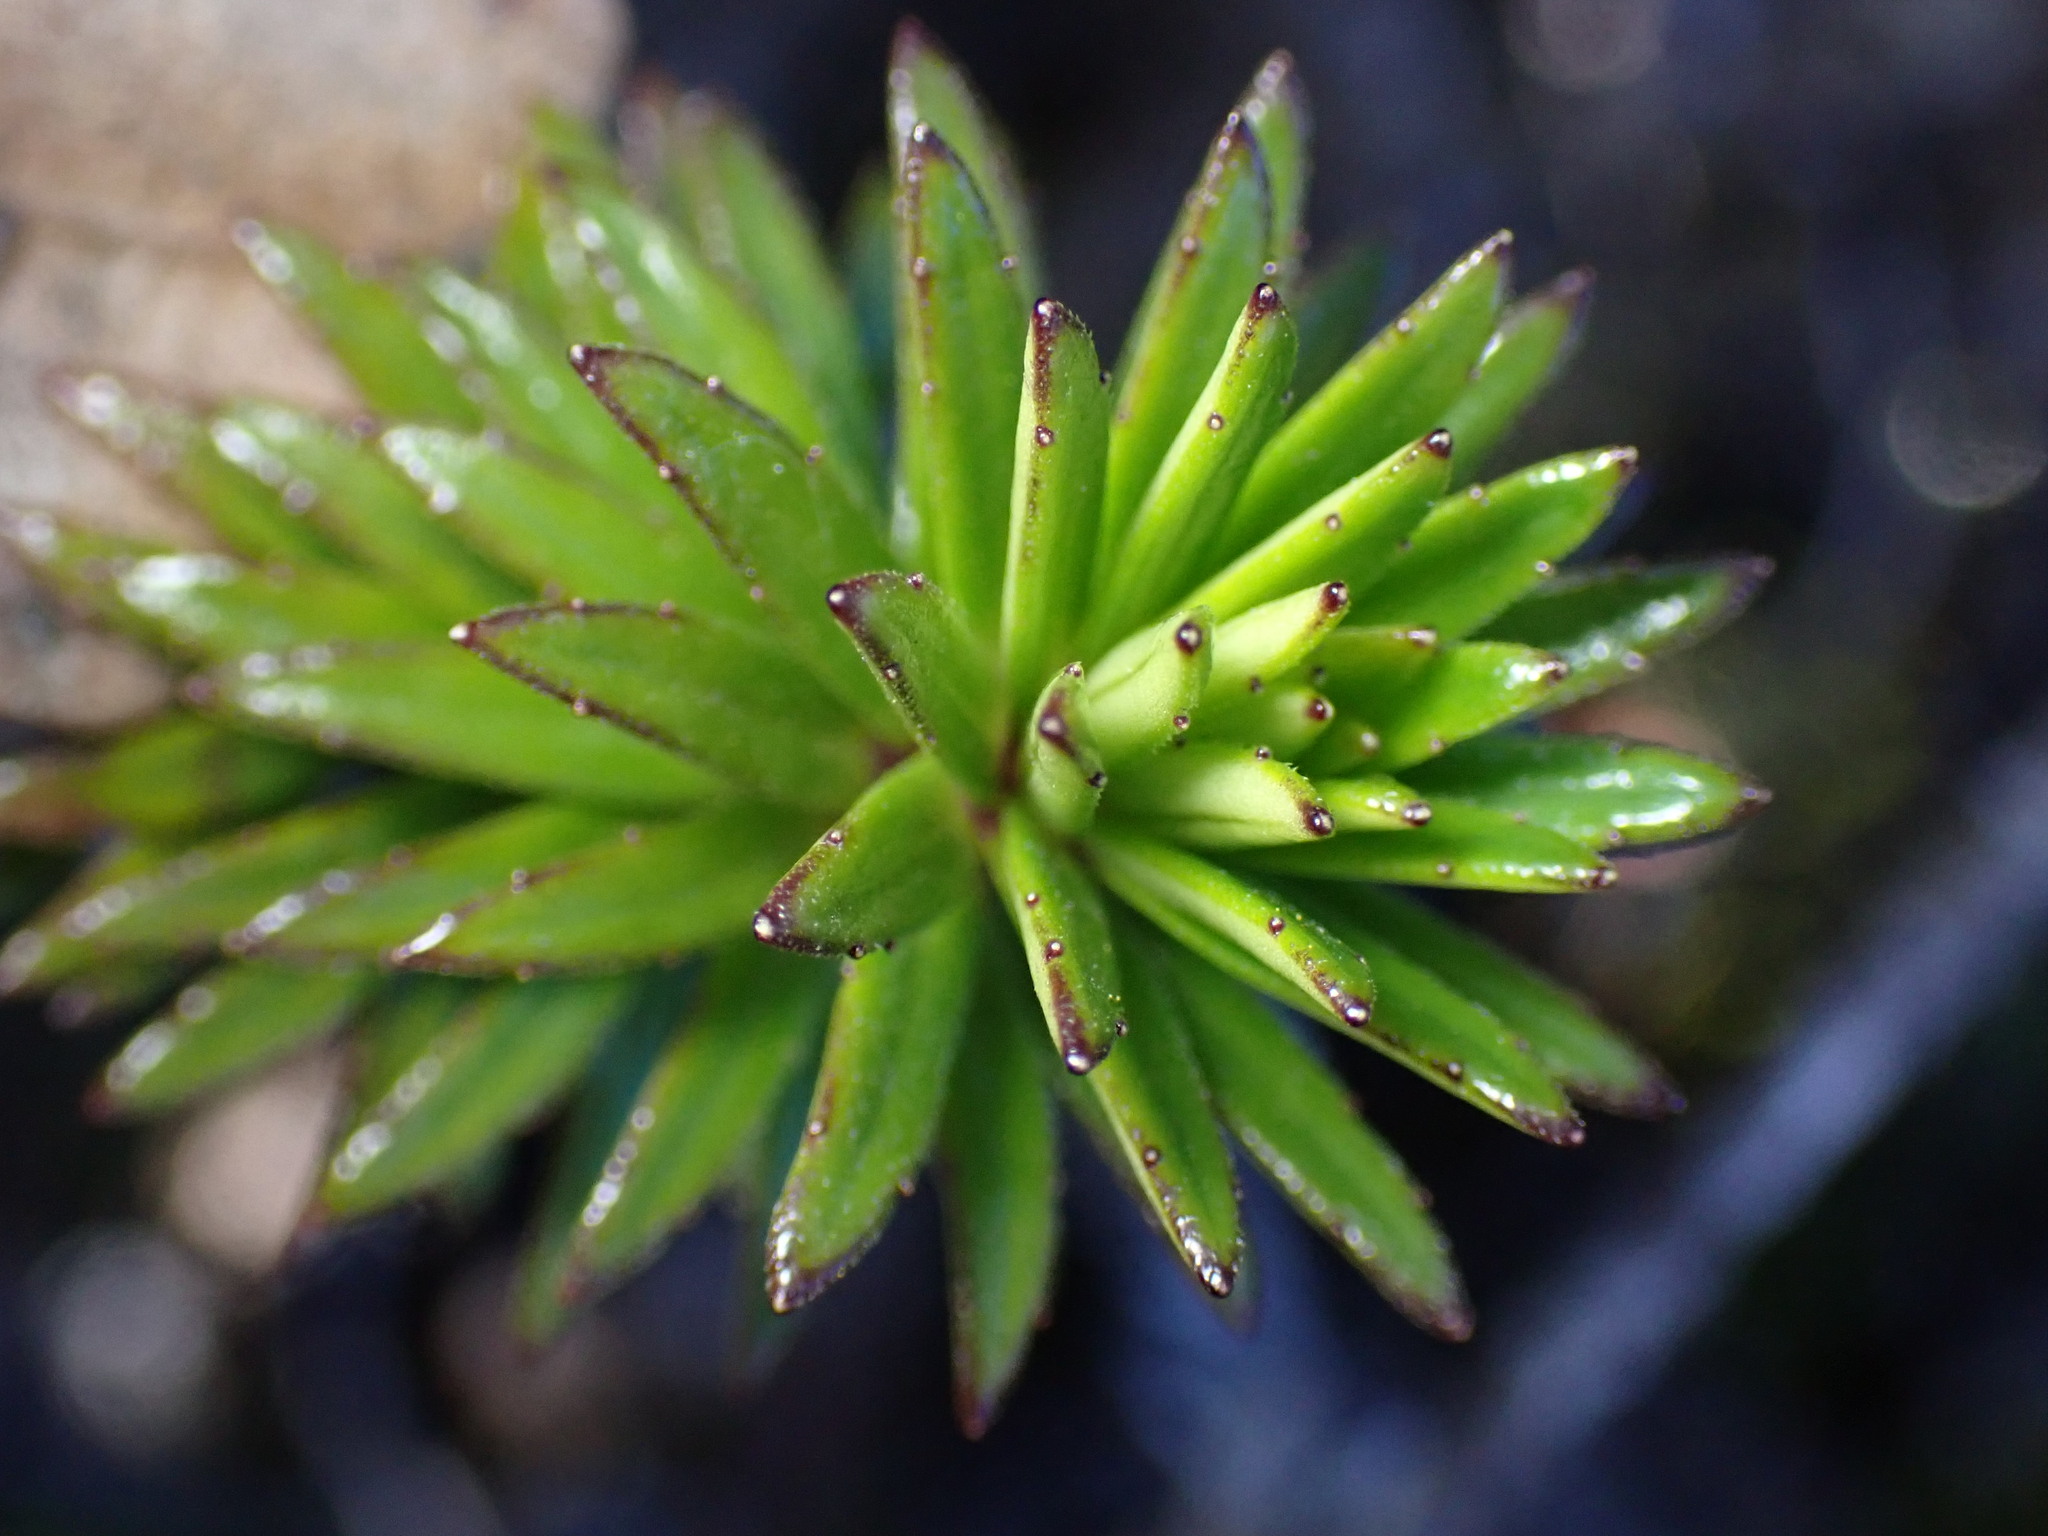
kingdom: Plantae
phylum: Tracheophyta
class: Magnoliopsida
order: Asterales
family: Asteraceae
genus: Dubautia
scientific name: Dubautia scabra
